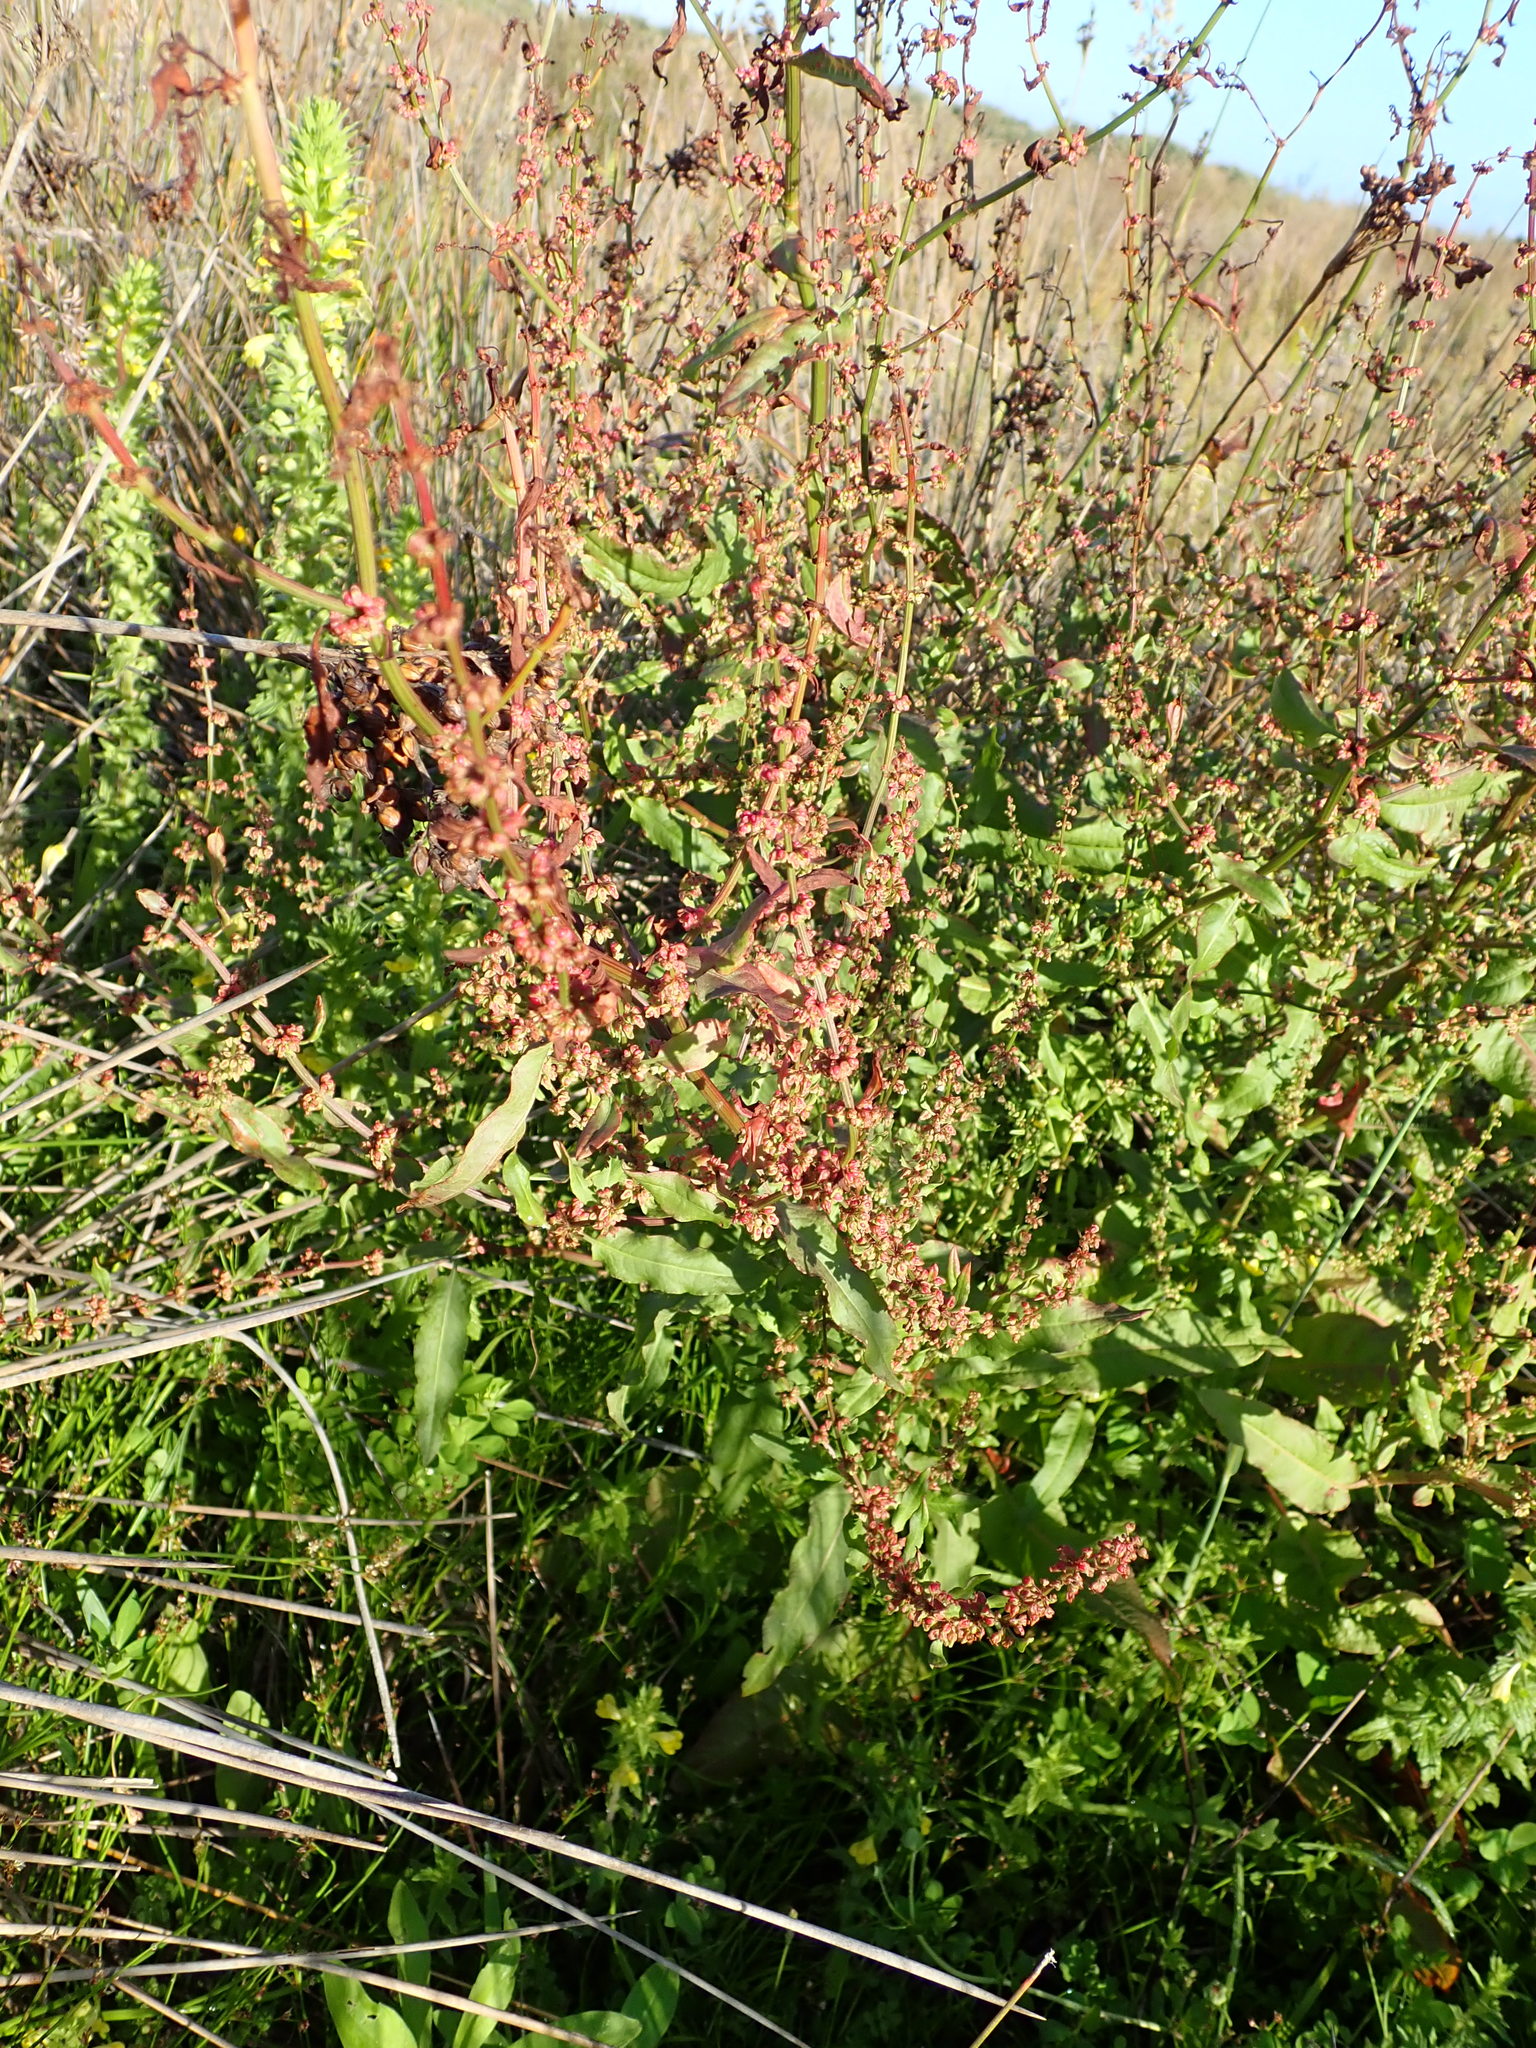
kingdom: Plantae
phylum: Tracheophyta
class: Magnoliopsida
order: Caryophyllales
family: Polygonaceae
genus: Rumex
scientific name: Rumex crispus
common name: Curled dock
